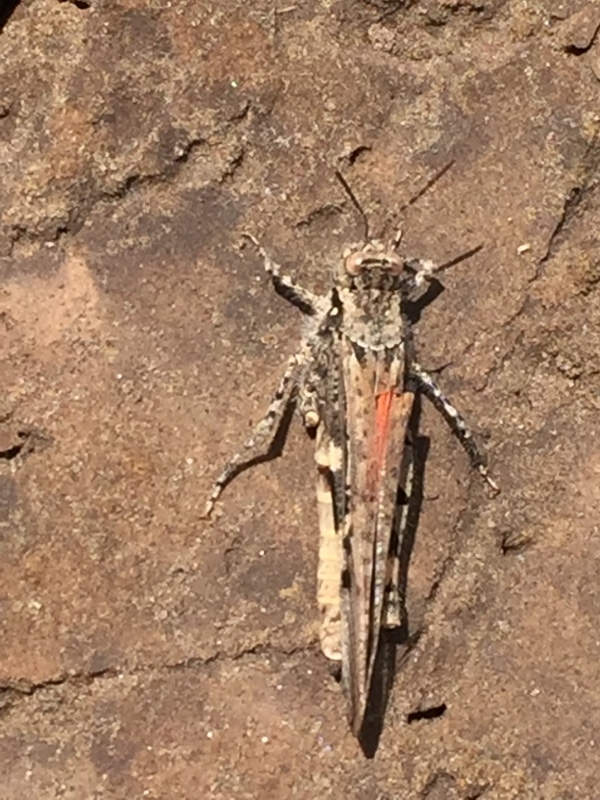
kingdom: Animalia
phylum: Arthropoda
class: Insecta
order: Orthoptera
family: Acrididae
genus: Acrotylus
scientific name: Acrotylus insubricus
